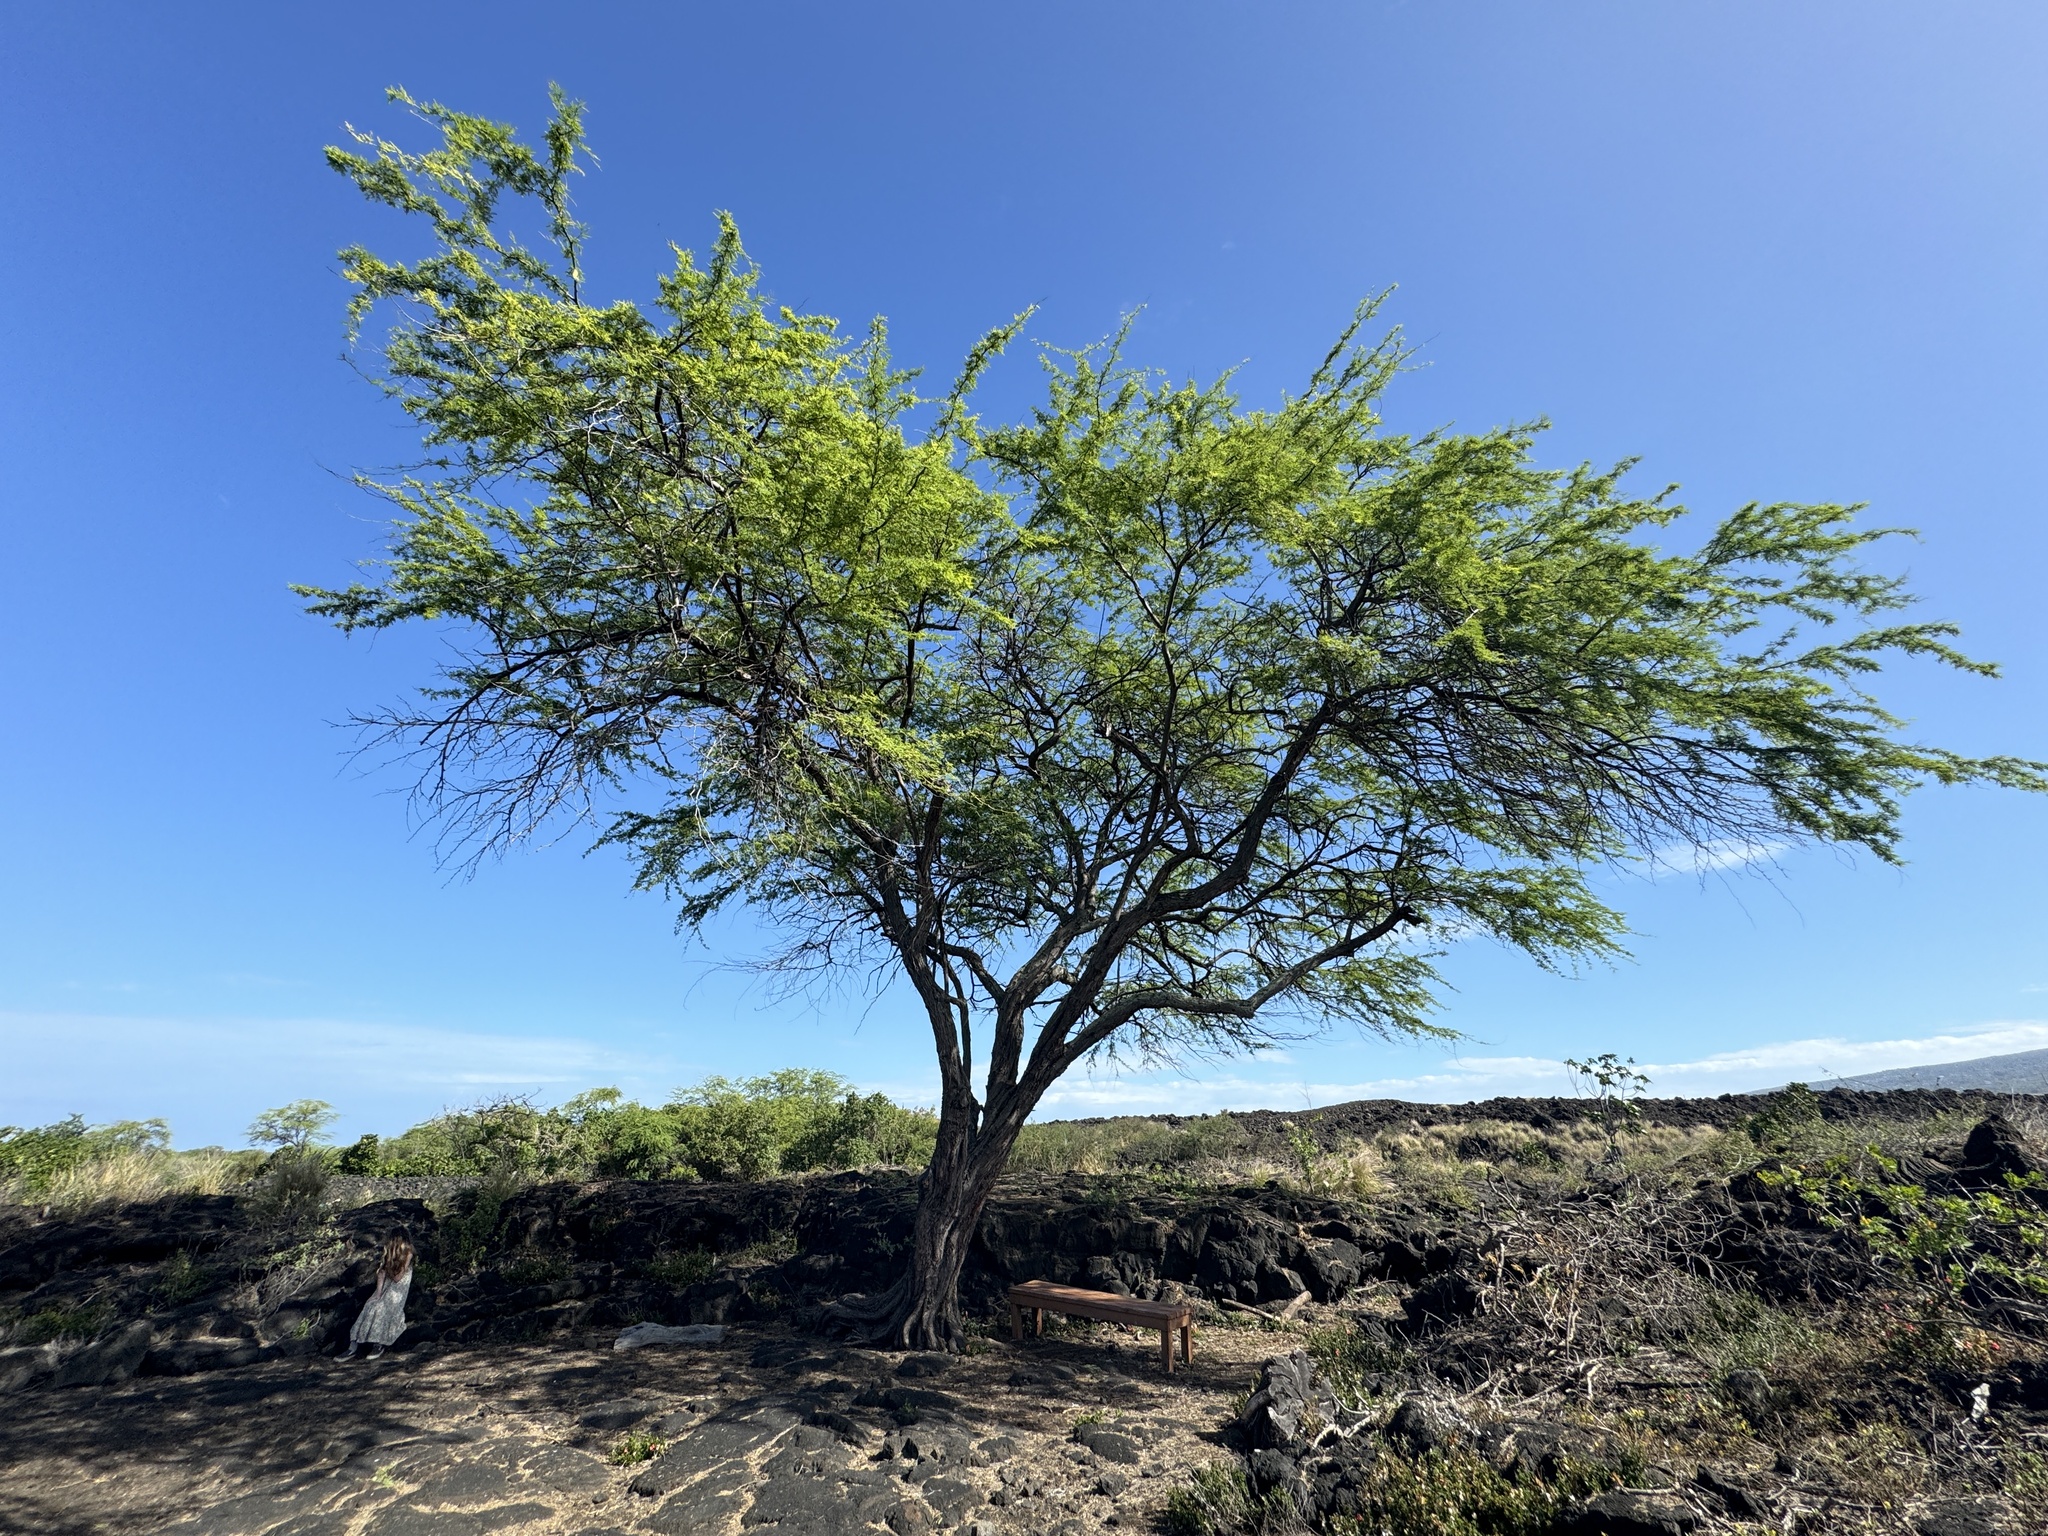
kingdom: Plantae
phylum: Tracheophyta
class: Magnoliopsida
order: Fabales
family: Fabaceae
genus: Prosopis
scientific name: Prosopis pallida
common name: Mesquite
